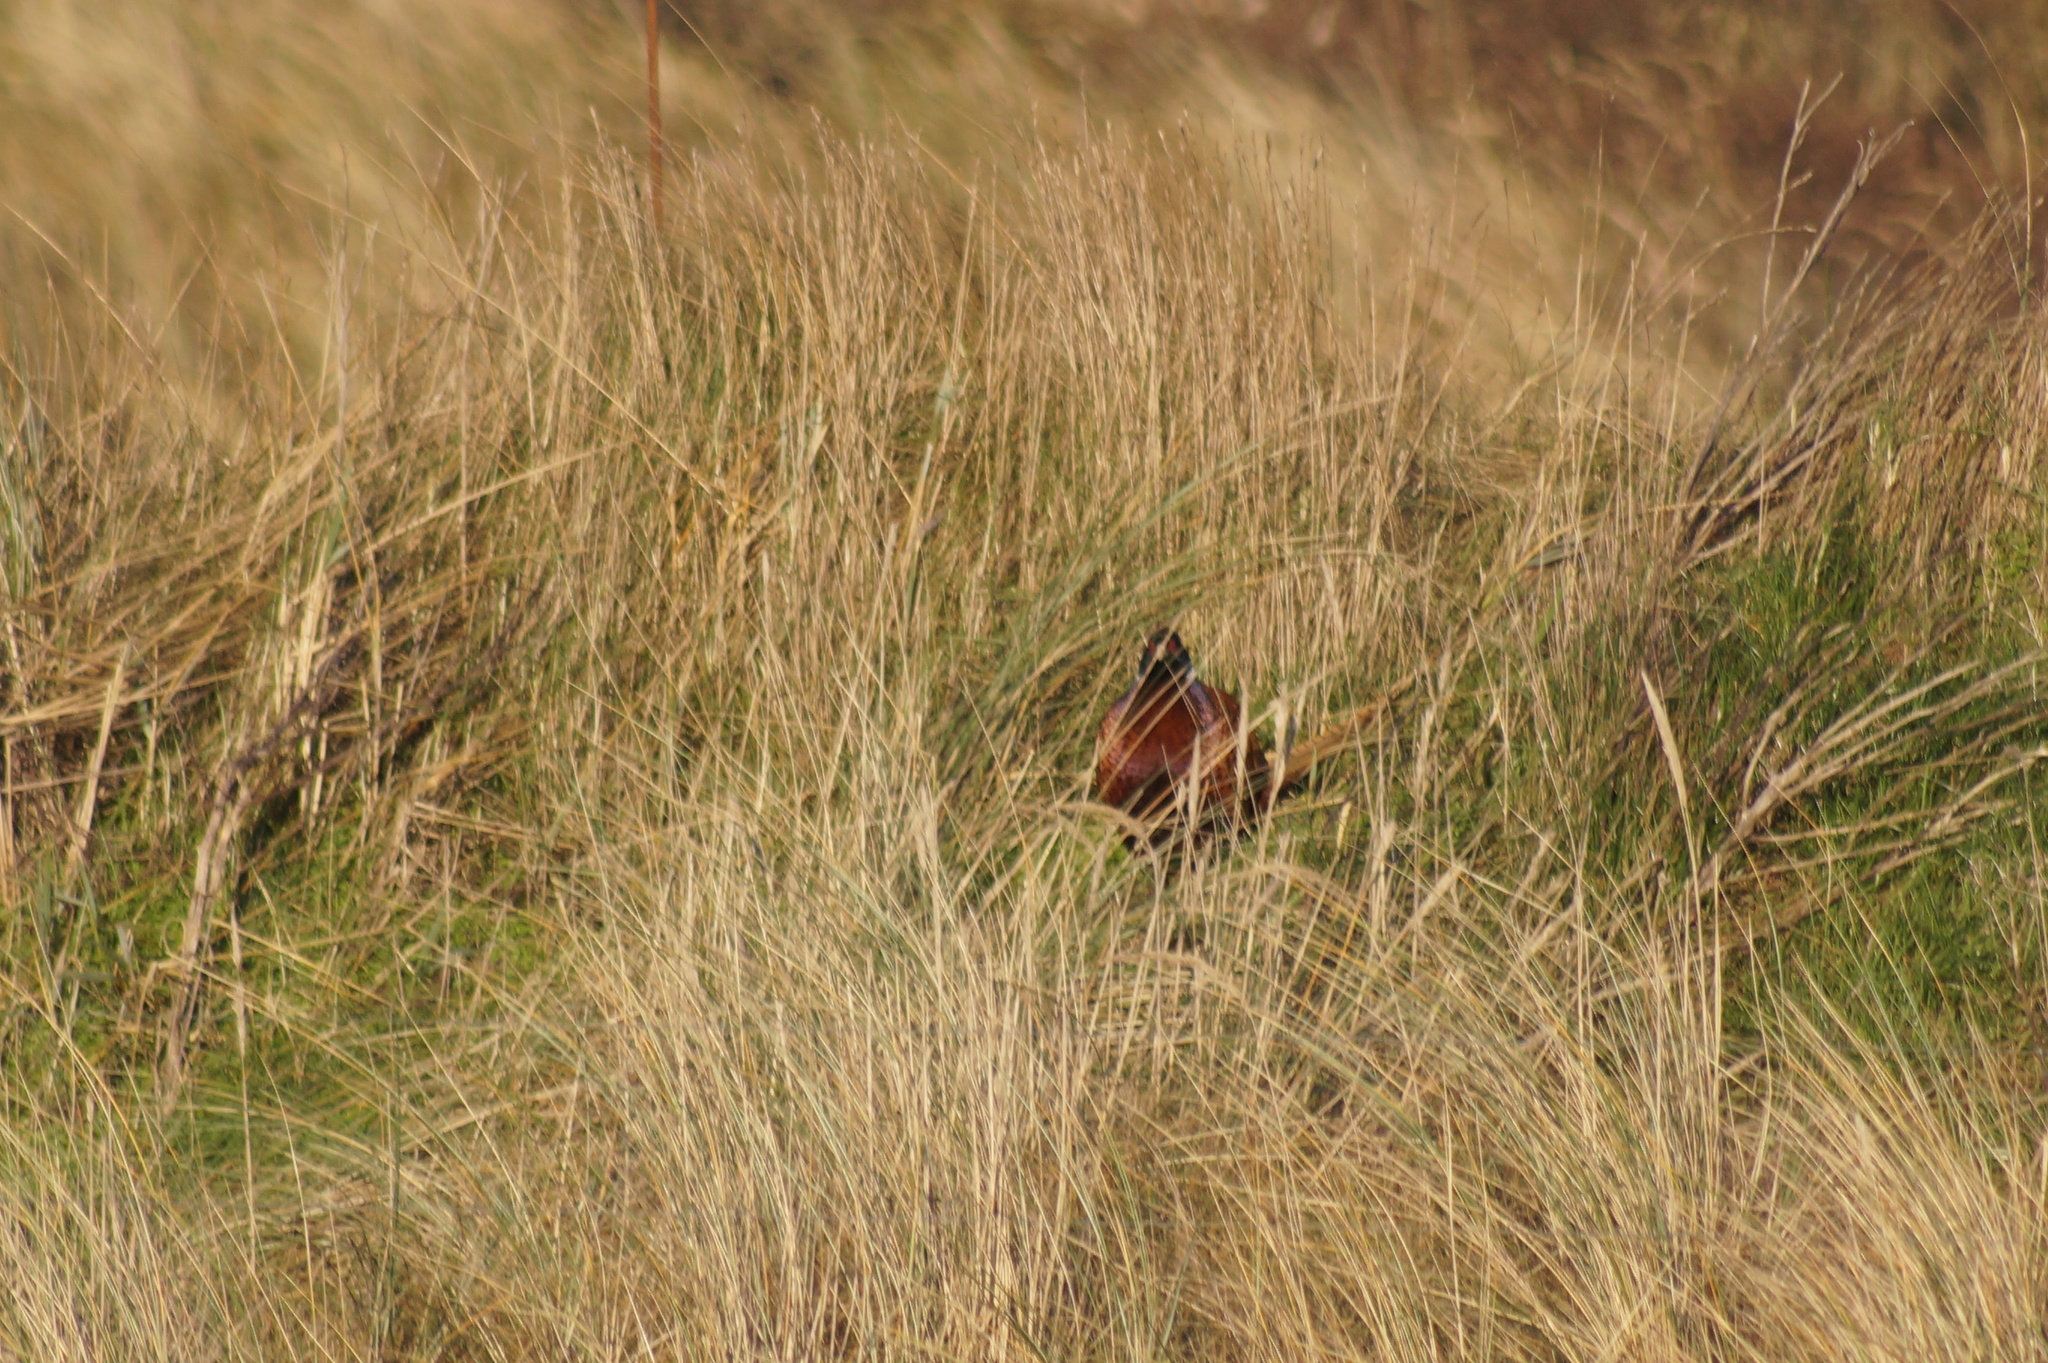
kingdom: Animalia
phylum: Chordata
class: Aves
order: Galliformes
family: Phasianidae
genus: Phasianus
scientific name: Phasianus colchicus
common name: Common pheasant
